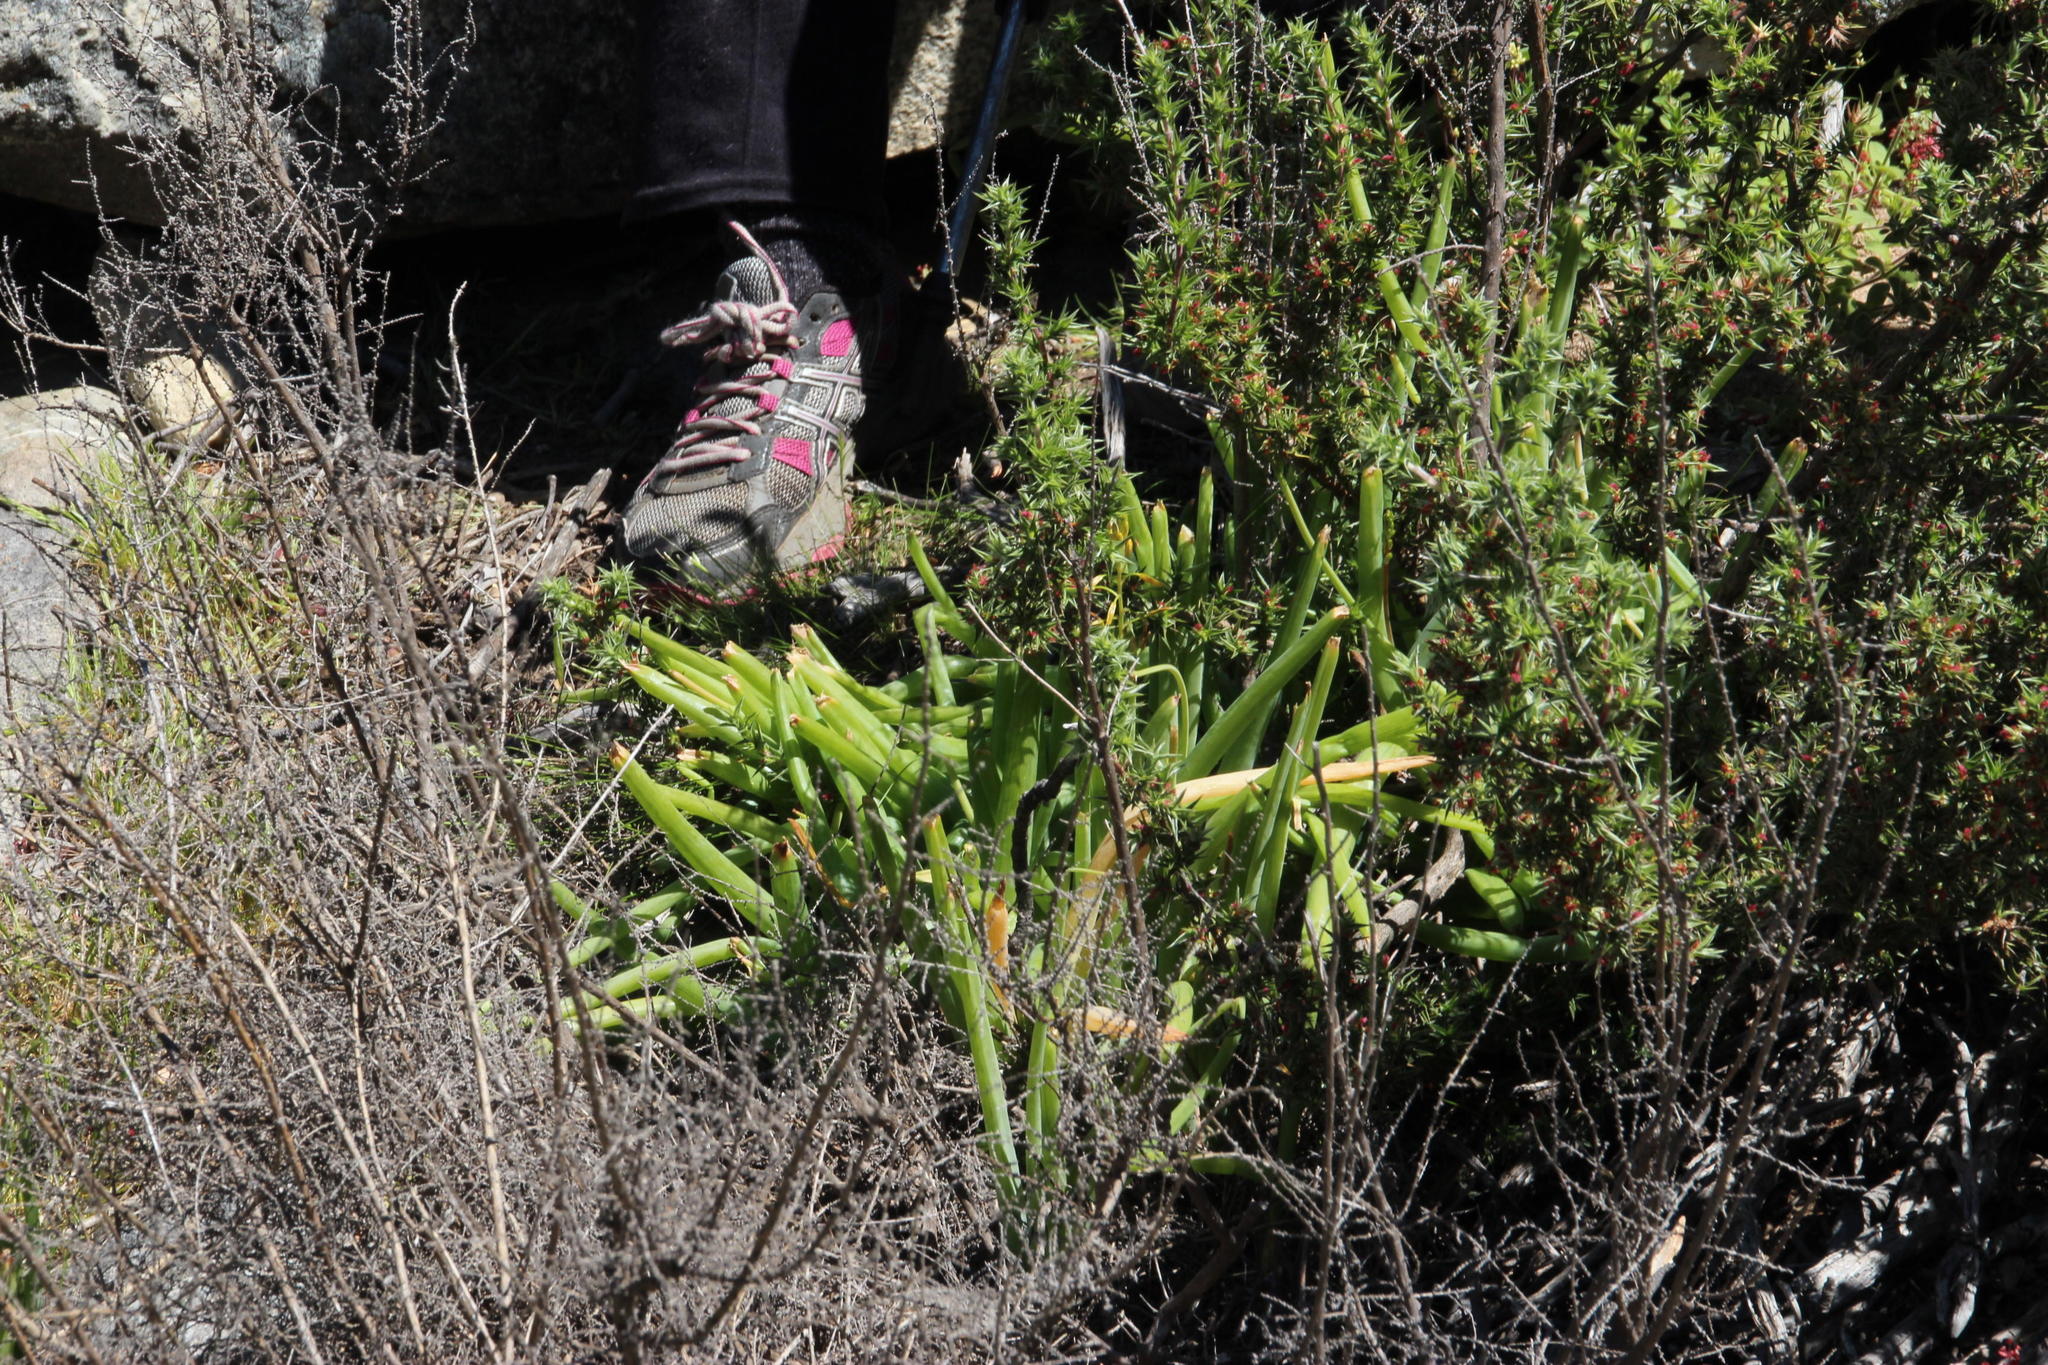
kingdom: Plantae
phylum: Tracheophyta
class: Liliopsida
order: Asparagales
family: Asphodelaceae
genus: Bulbine
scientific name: Bulbine praemorsa
